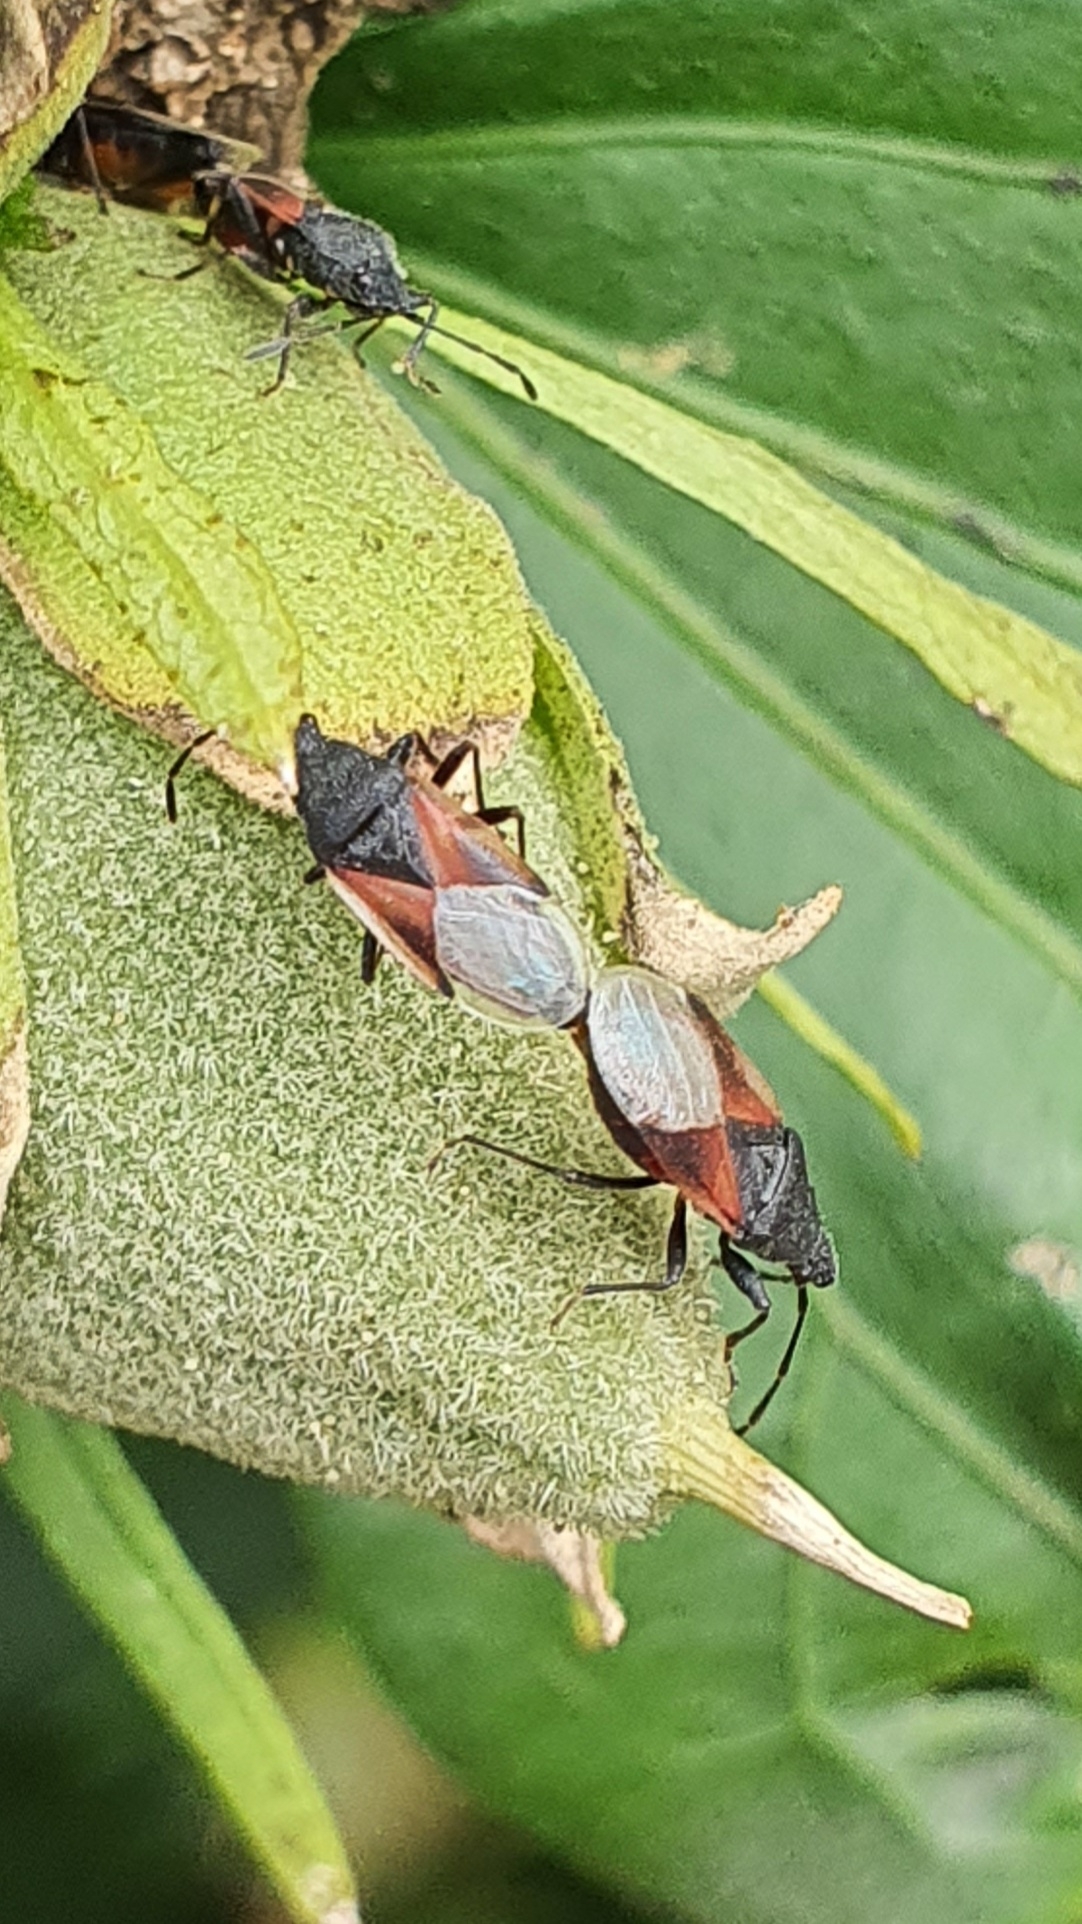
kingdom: Animalia
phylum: Arthropoda
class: Insecta
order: Hemiptera
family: Oxycarenidae
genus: Oxycarenus
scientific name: Oxycarenus lavaterae
